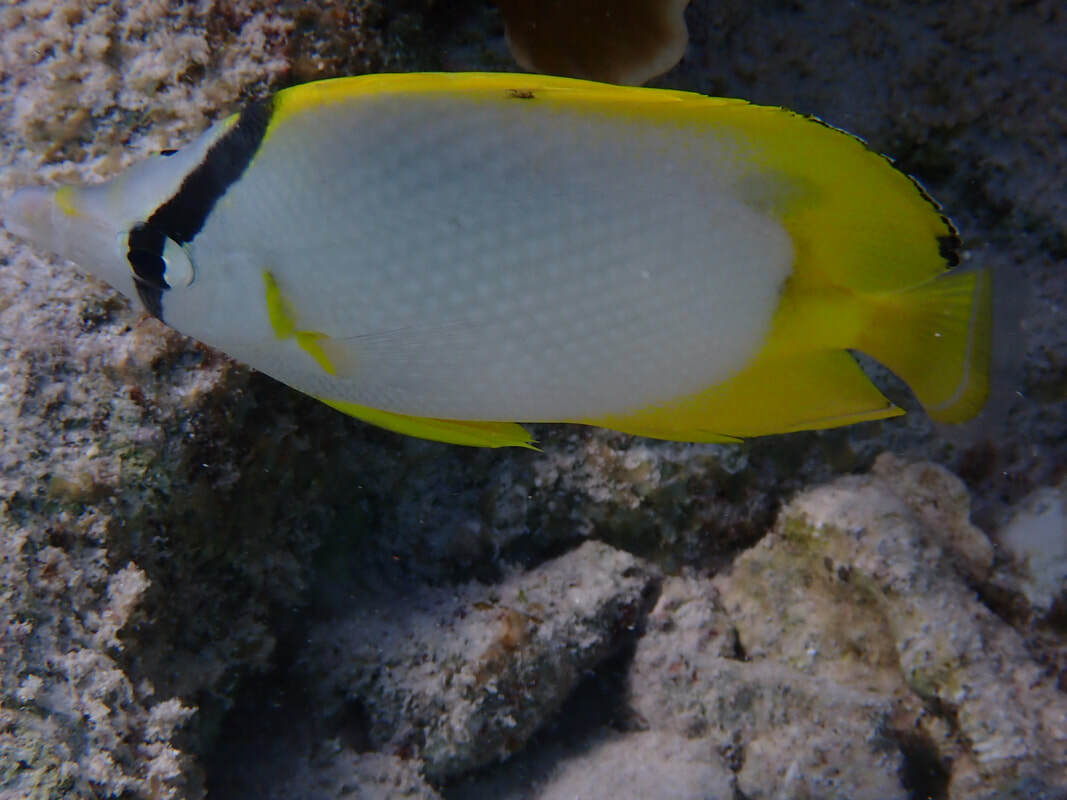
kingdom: Animalia
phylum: Chordata
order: Perciformes
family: Chaetodontidae
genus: Chaetodon
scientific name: Chaetodon ocellatus
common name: Spotfin butterflyfish
